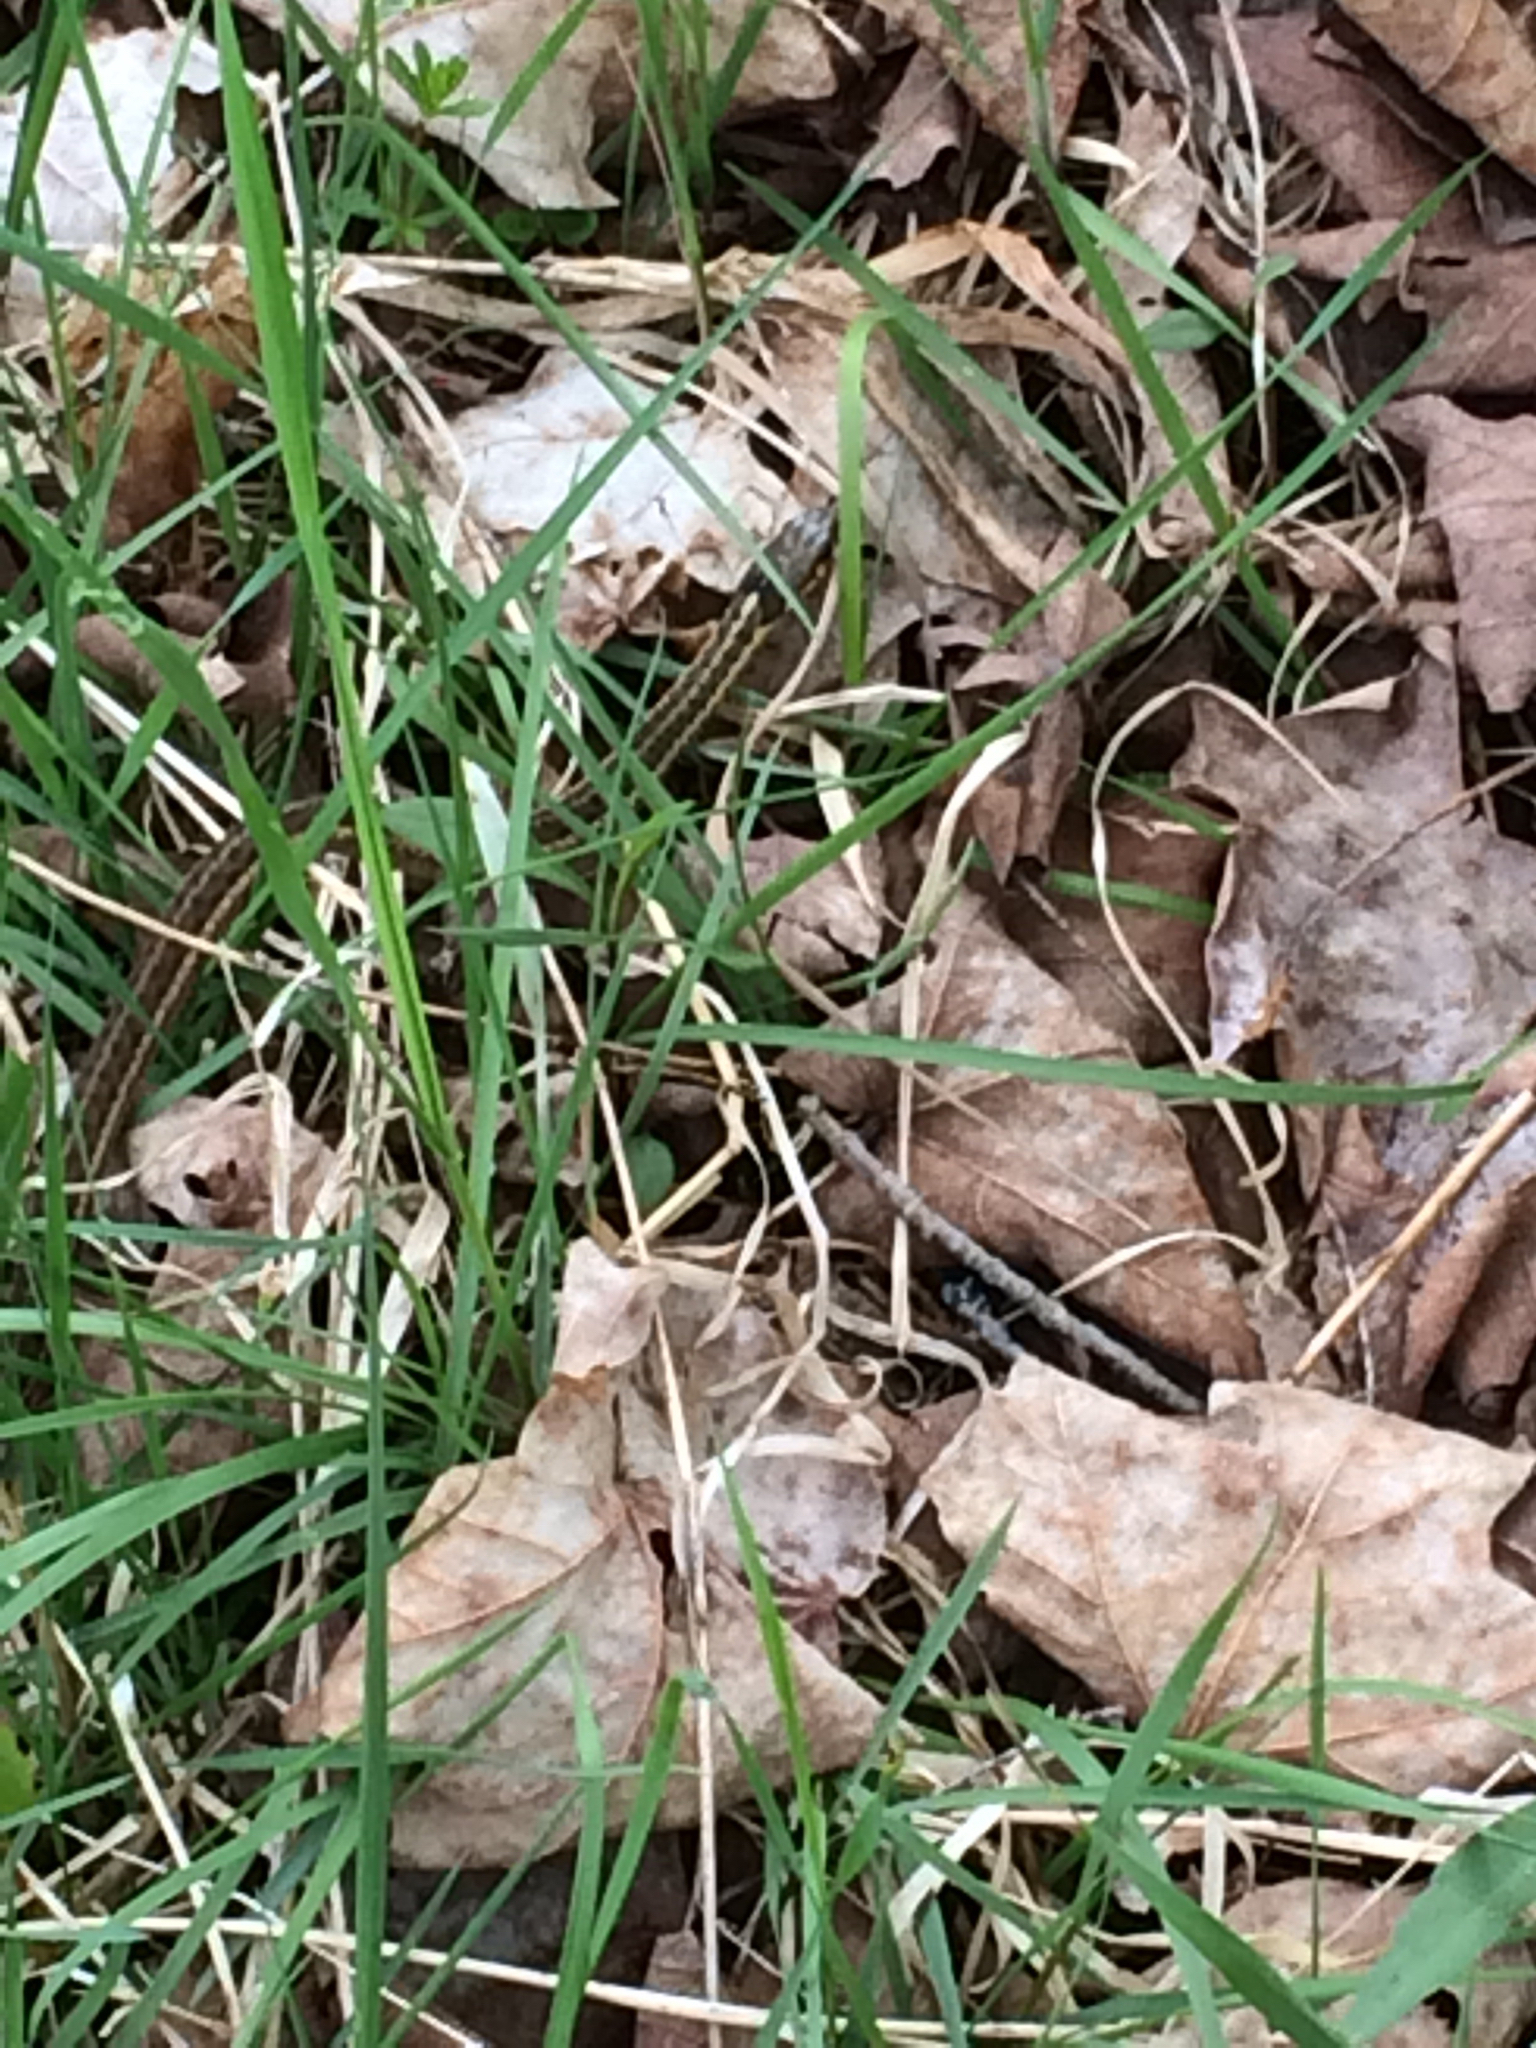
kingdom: Animalia
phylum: Chordata
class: Squamata
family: Colubridae
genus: Thamnophis
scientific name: Thamnophis sirtalis
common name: Common garter snake
